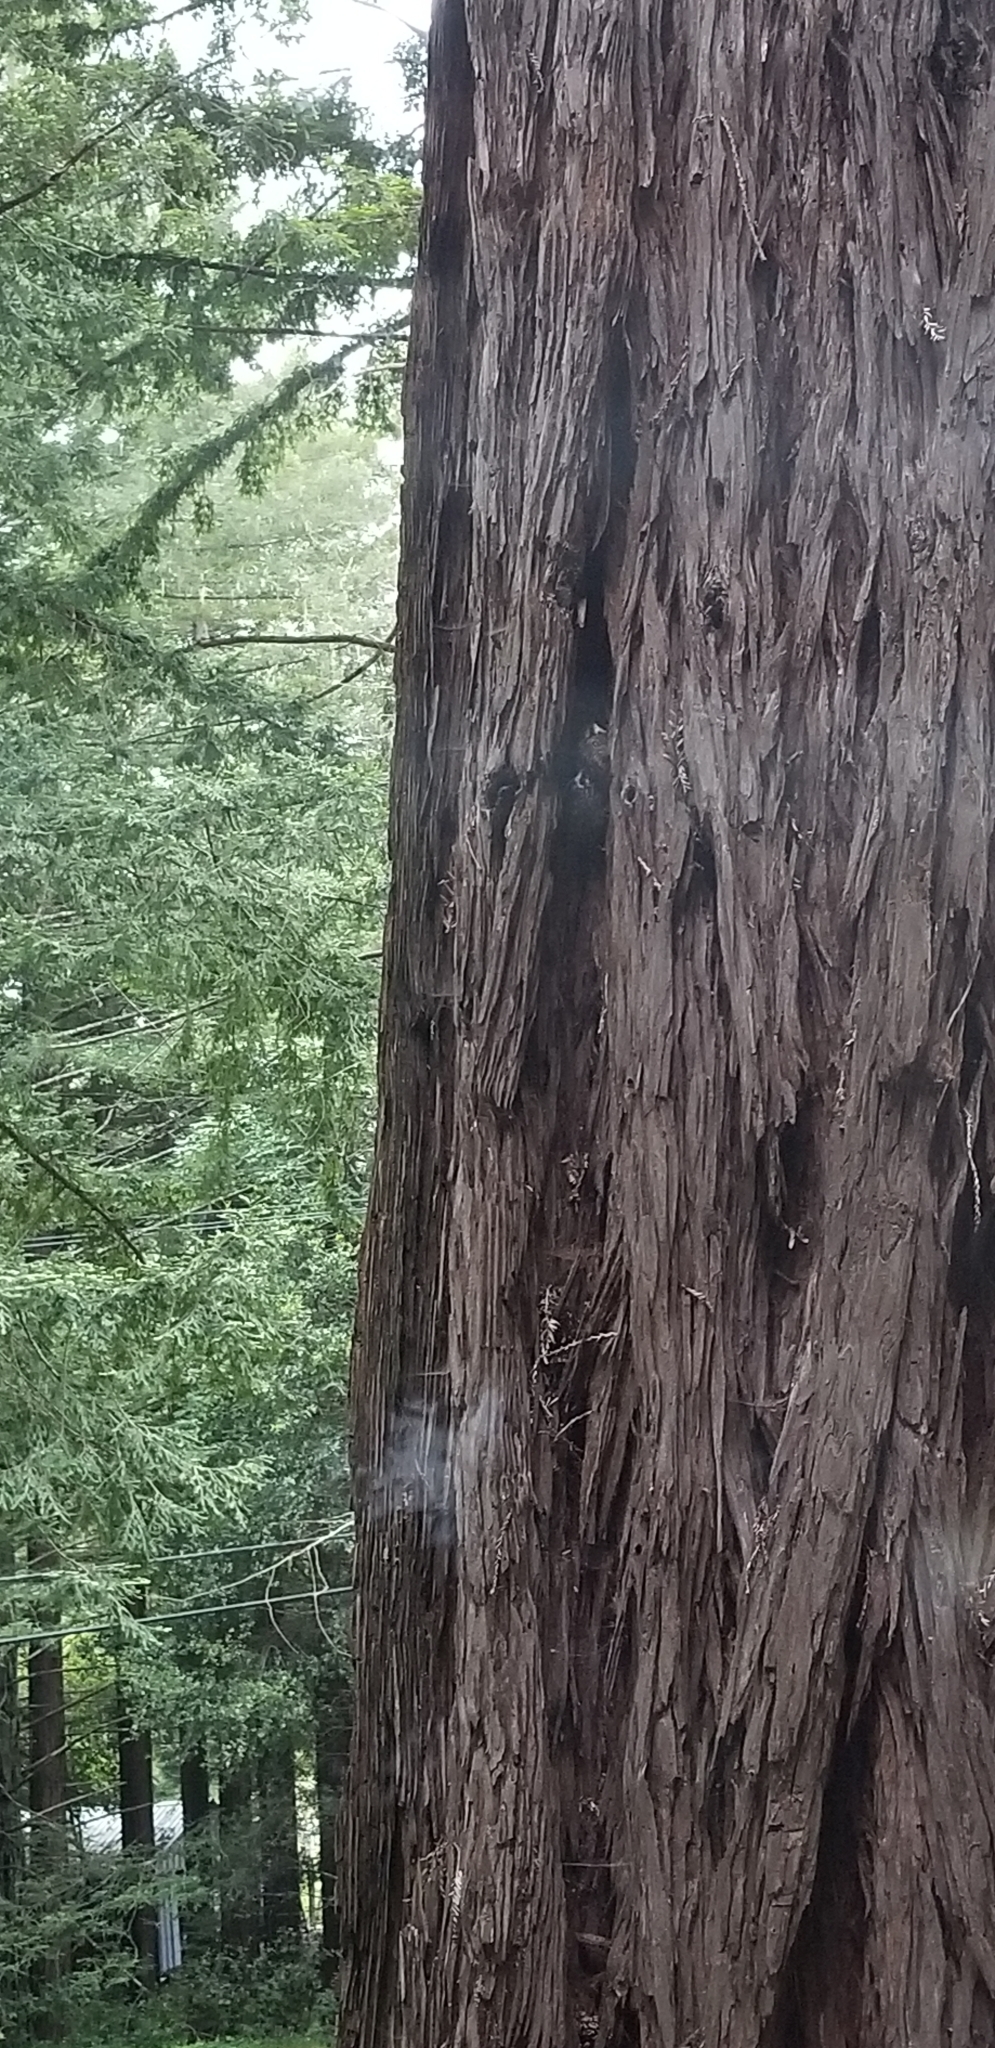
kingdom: Animalia
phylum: Chordata
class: Aves
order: Passeriformes
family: Certhiidae
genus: Certhia
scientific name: Certhia americana
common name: Brown creeper
